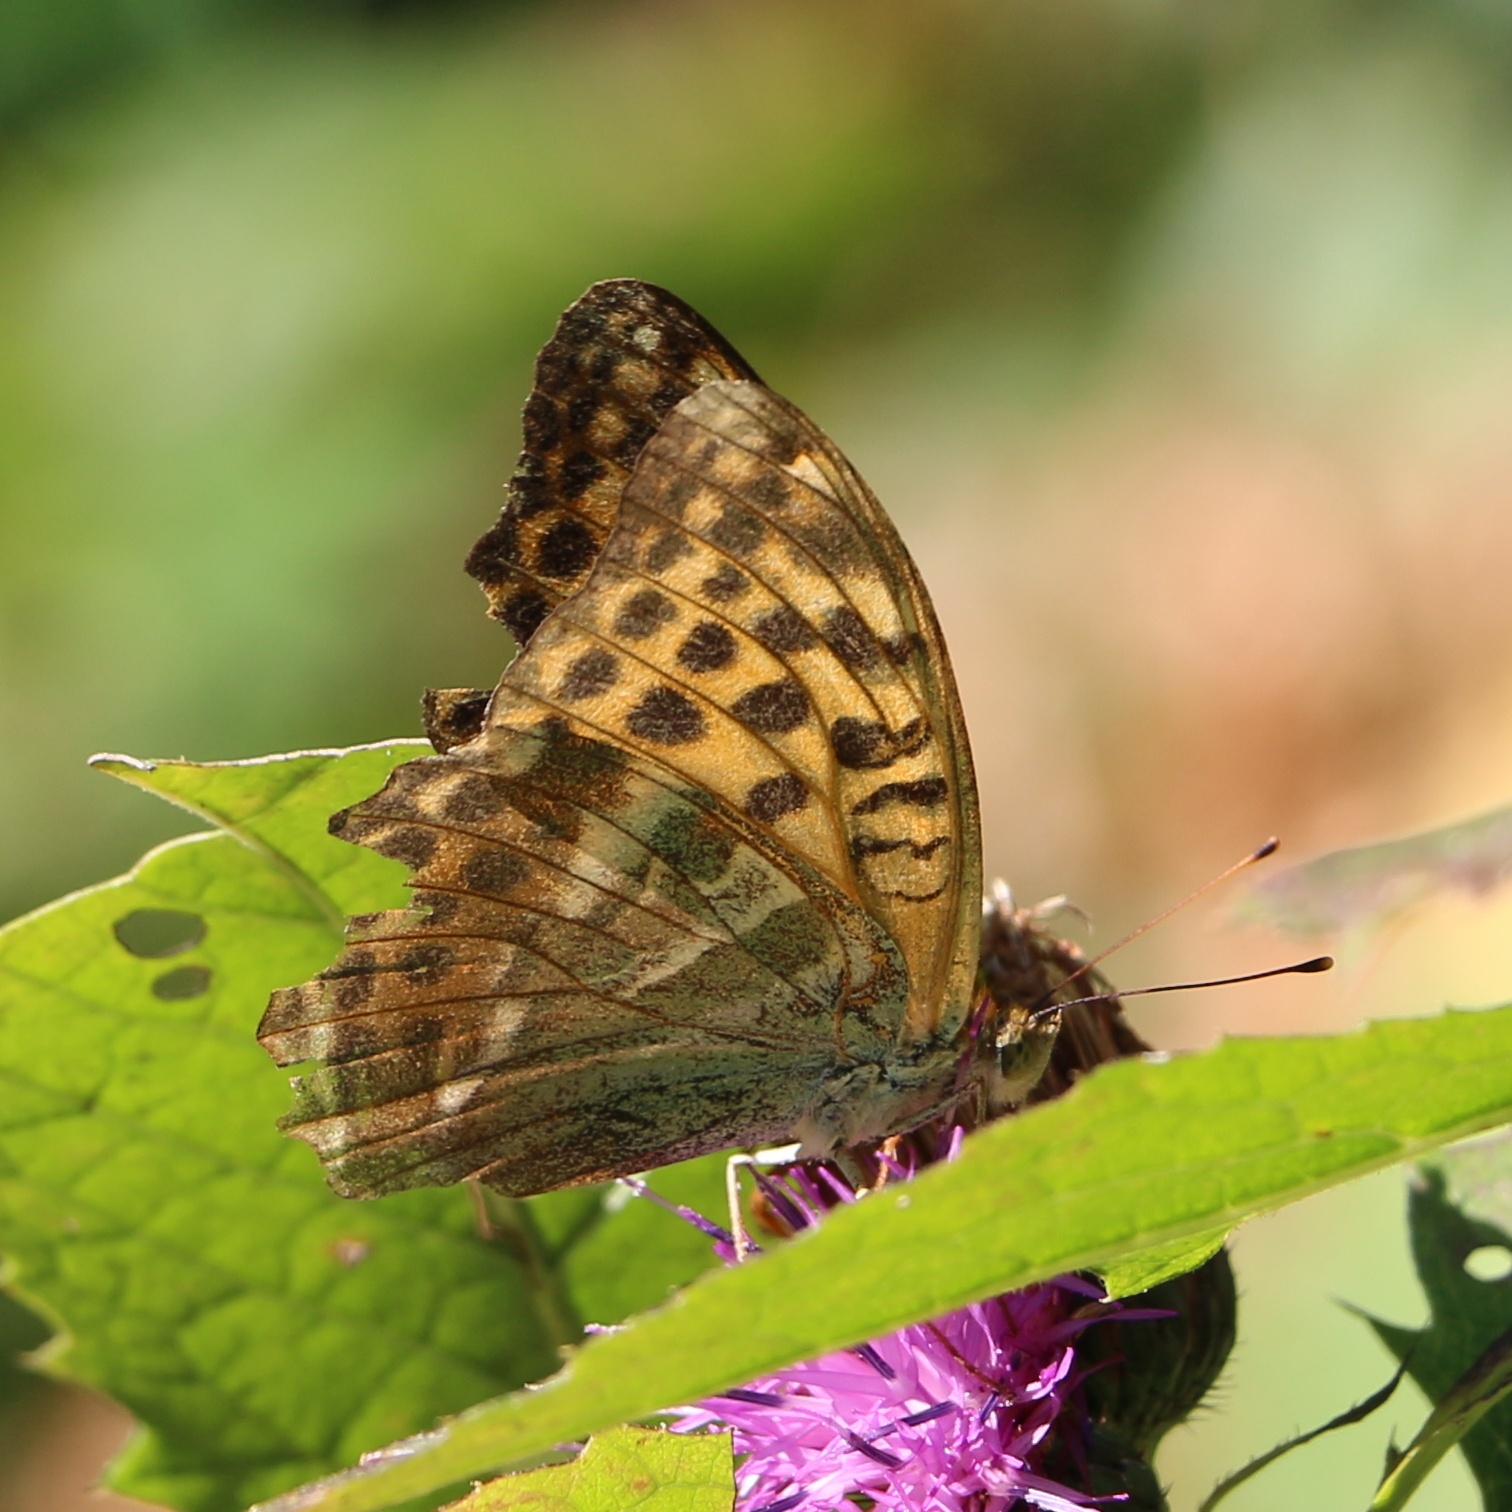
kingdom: Animalia
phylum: Arthropoda
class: Insecta
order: Lepidoptera
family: Nymphalidae
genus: Argynnis
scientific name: Argynnis paphia
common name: Silver-washed fritillary
